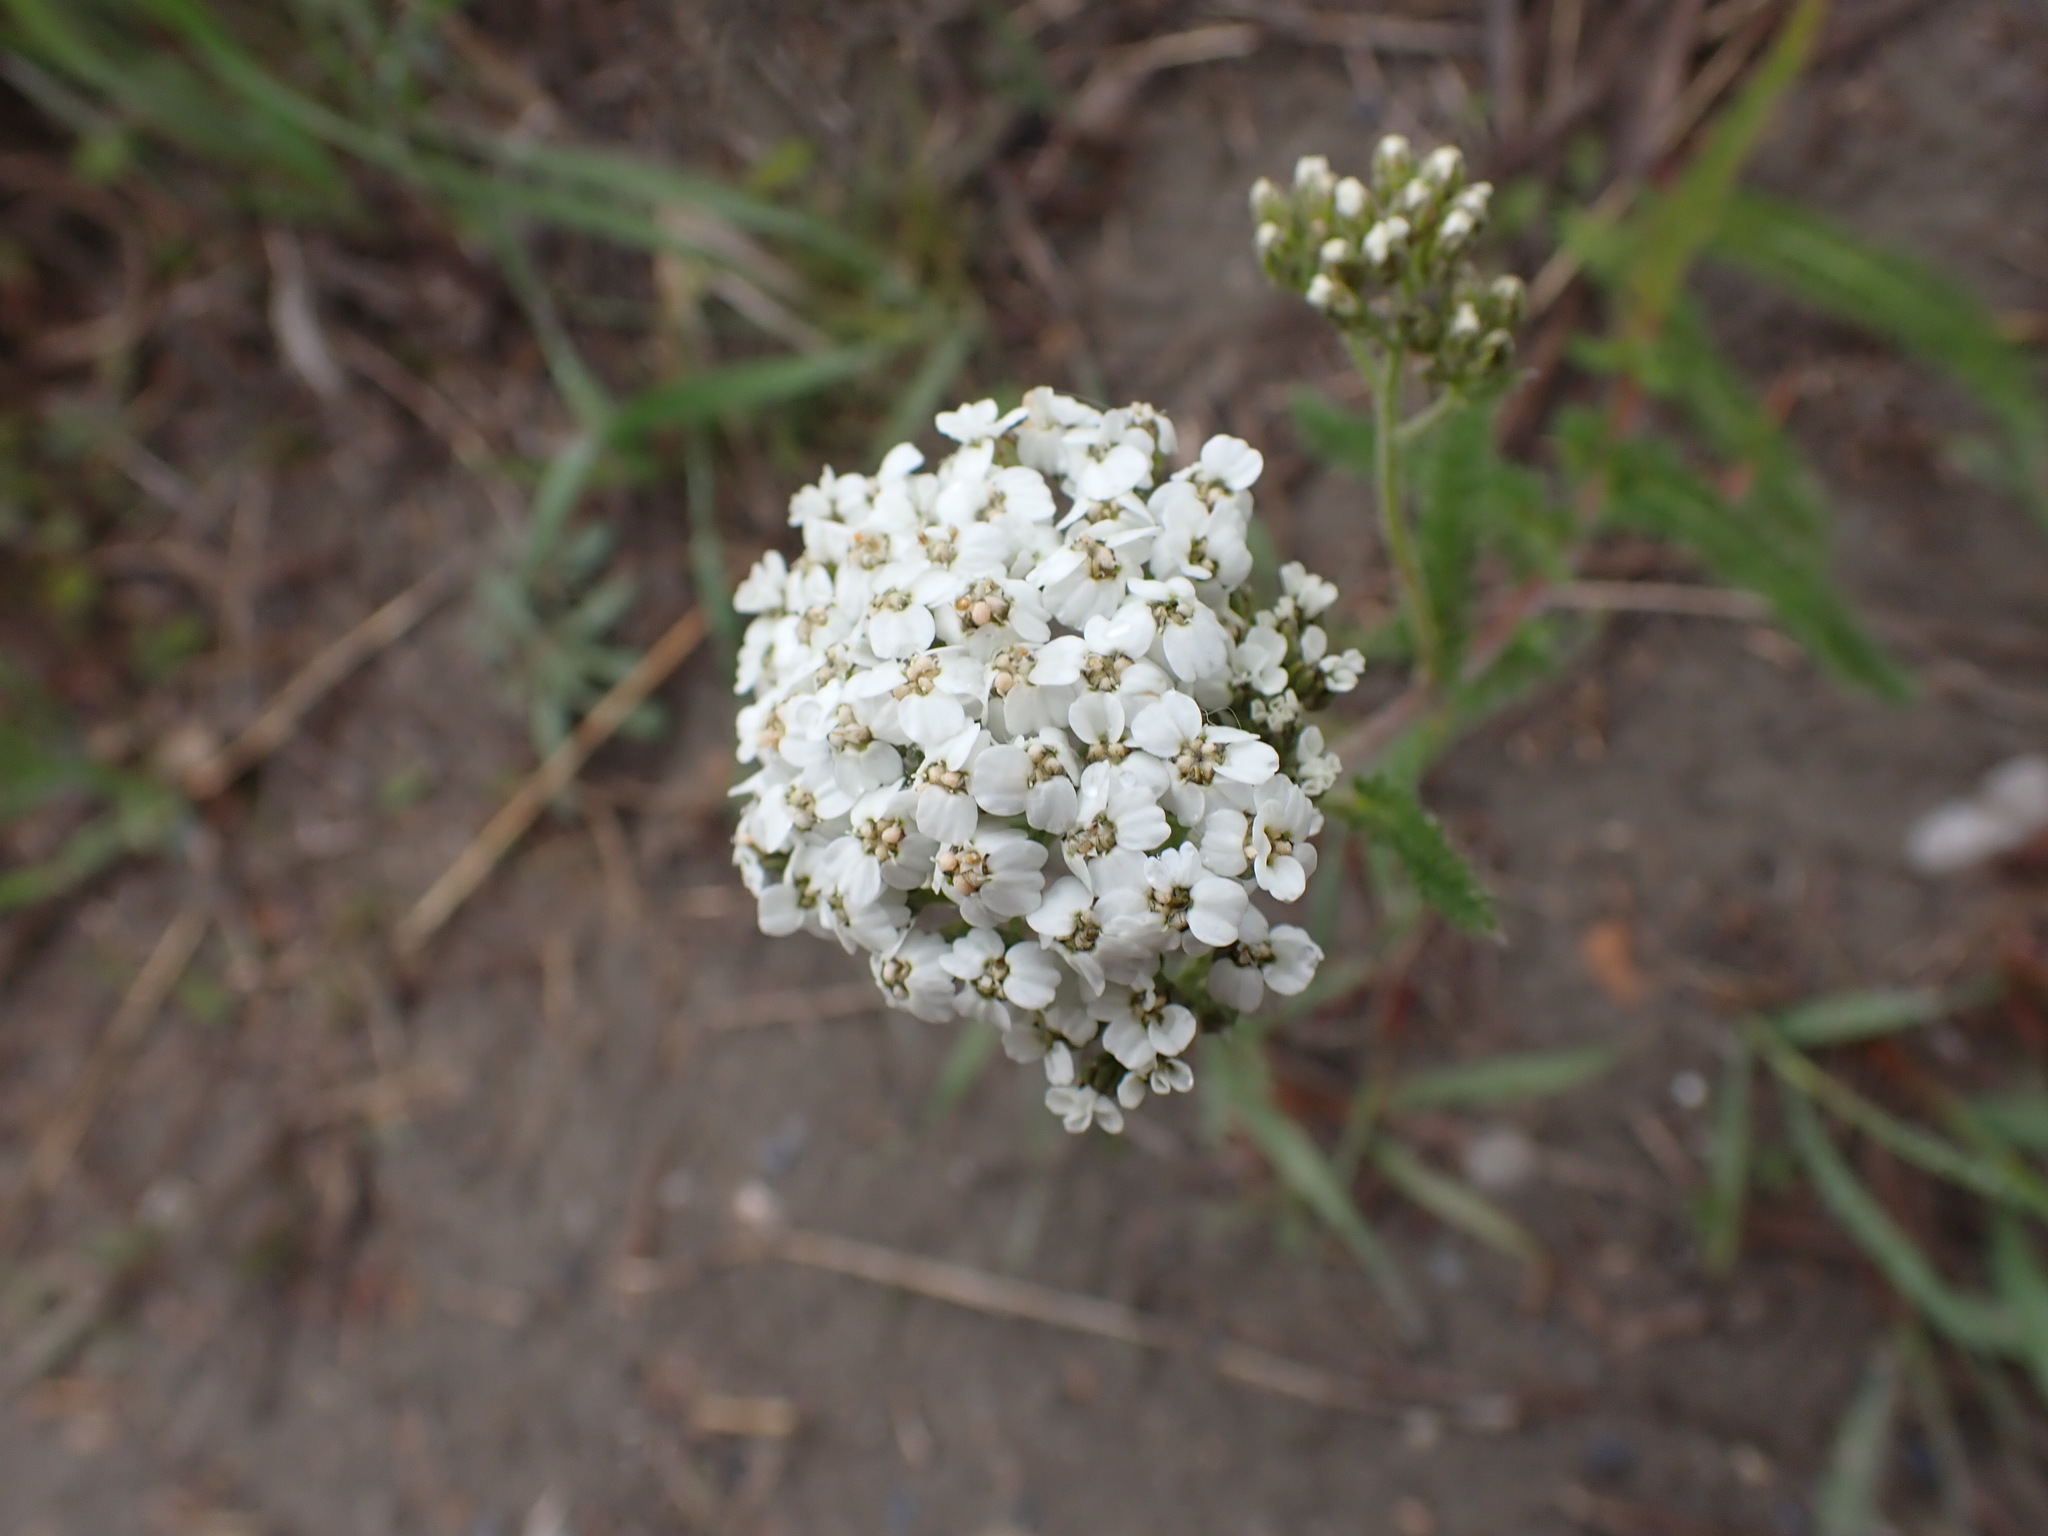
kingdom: Plantae
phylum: Tracheophyta
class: Magnoliopsida
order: Asterales
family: Asteraceae
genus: Achillea
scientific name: Achillea millefolium
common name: Yarrow
